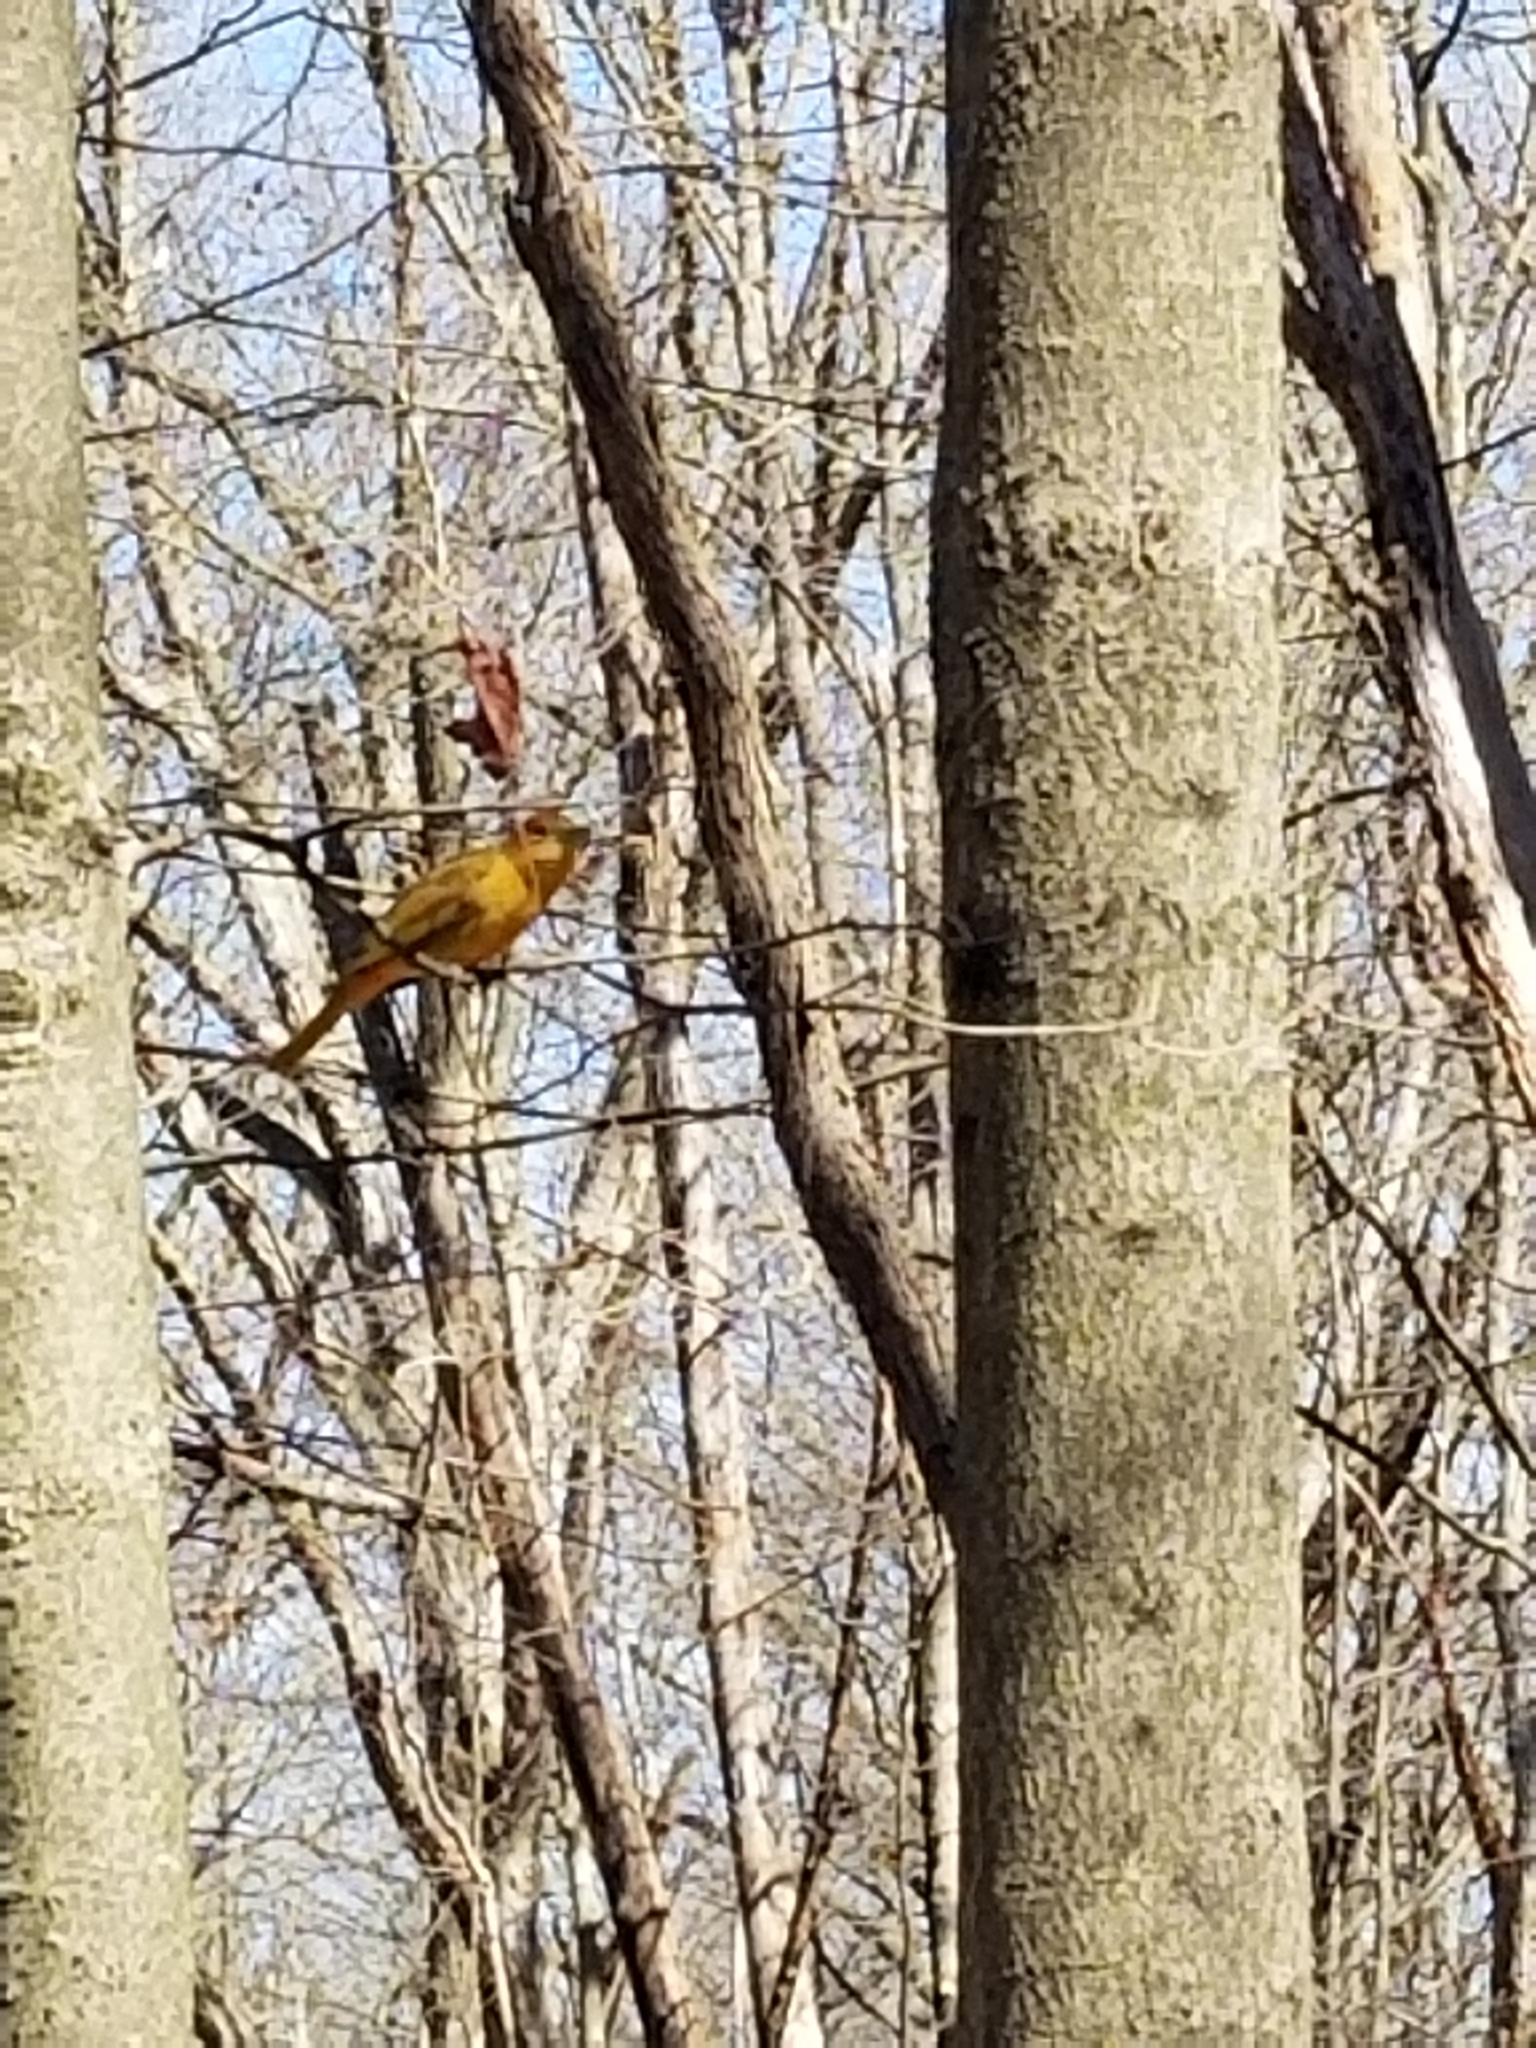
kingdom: Animalia
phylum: Chordata
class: Aves
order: Passeriformes
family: Cardinalidae
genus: Piranga
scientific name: Piranga rubra
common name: Summer tanager
